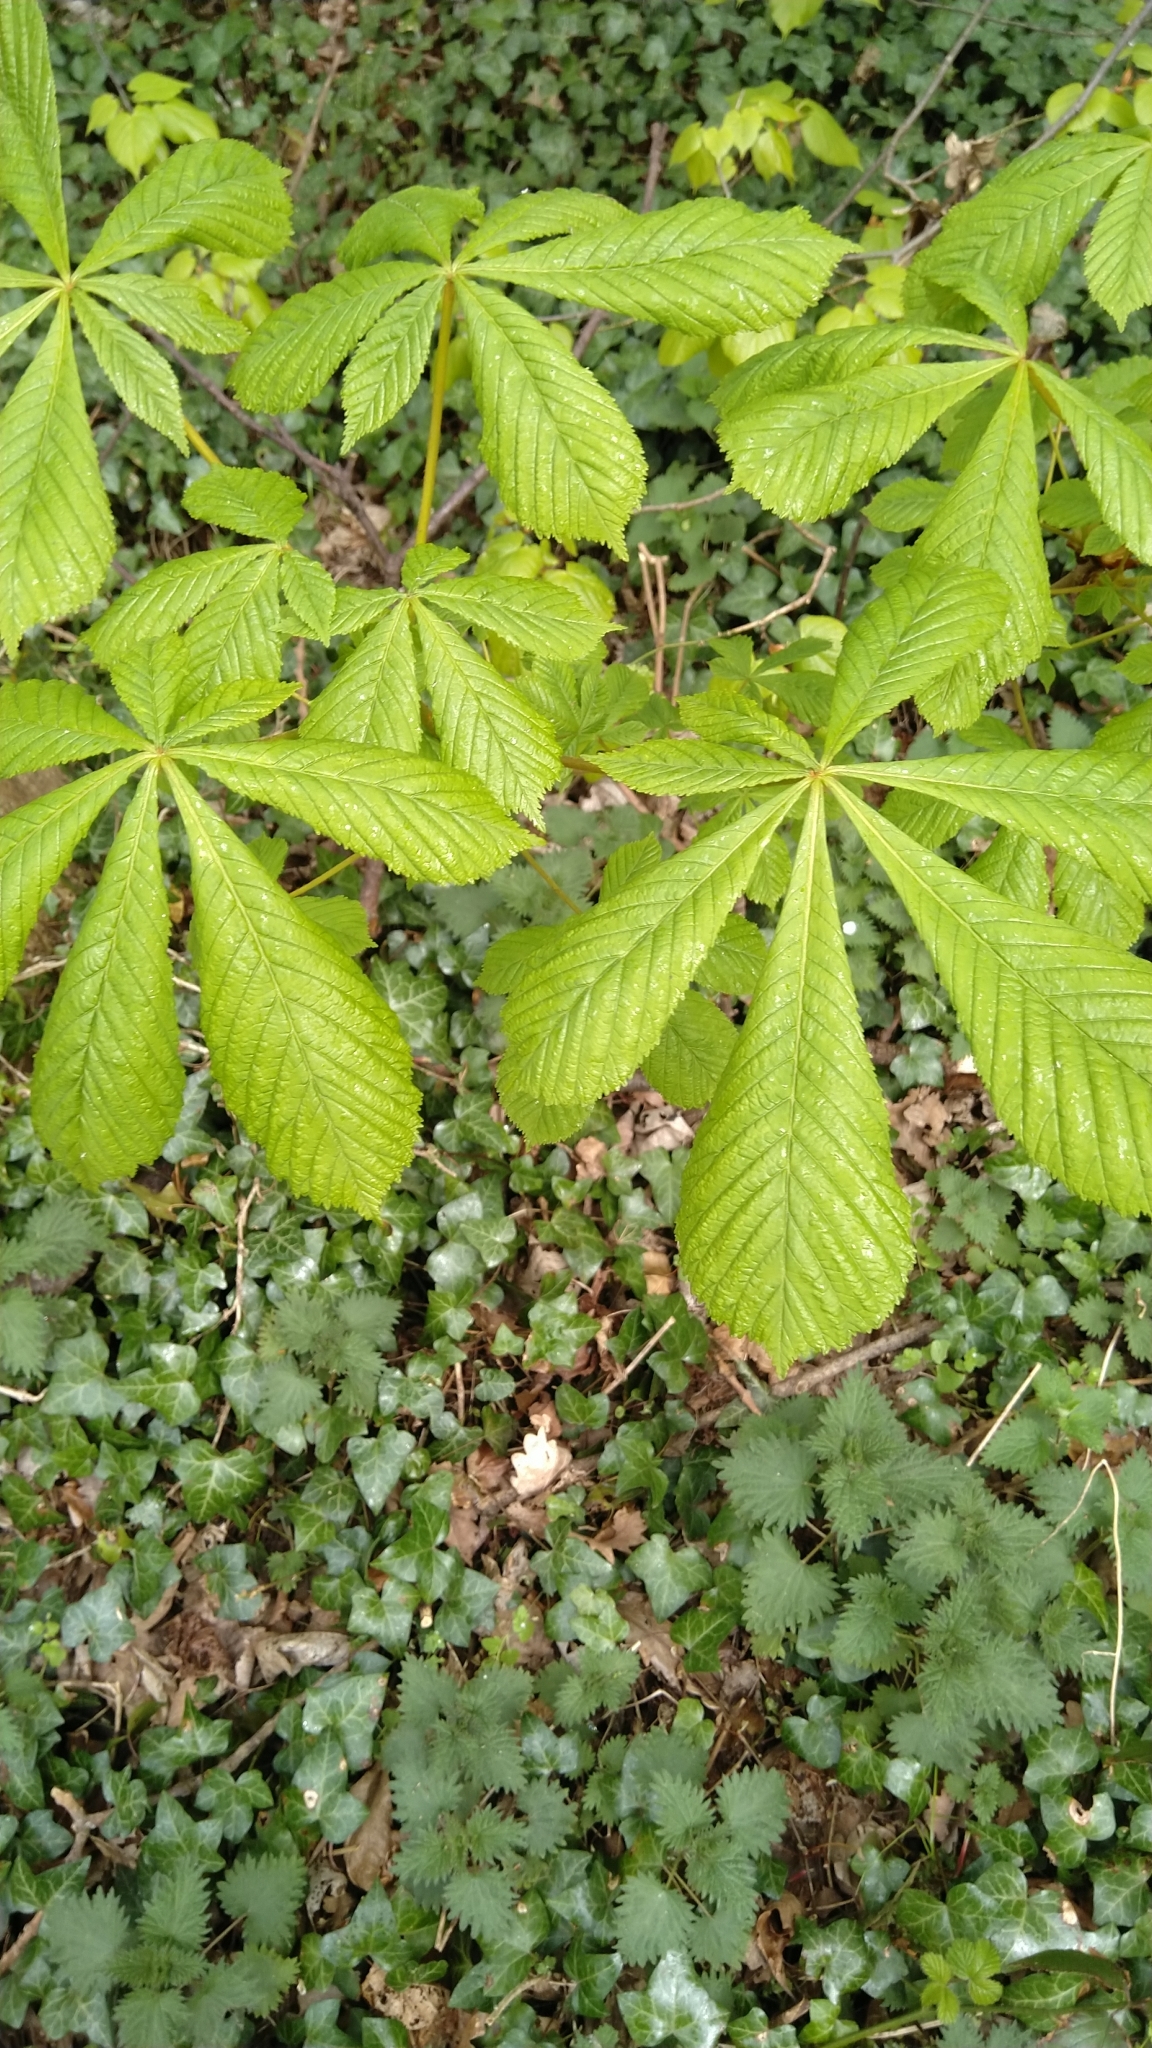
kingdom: Plantae
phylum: Tracheophyta
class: Magnoliopsida
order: Sapindales
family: Sapindaceae
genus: Aesculus
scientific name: Aesculus hippocastanum
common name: Horse-chestnut
